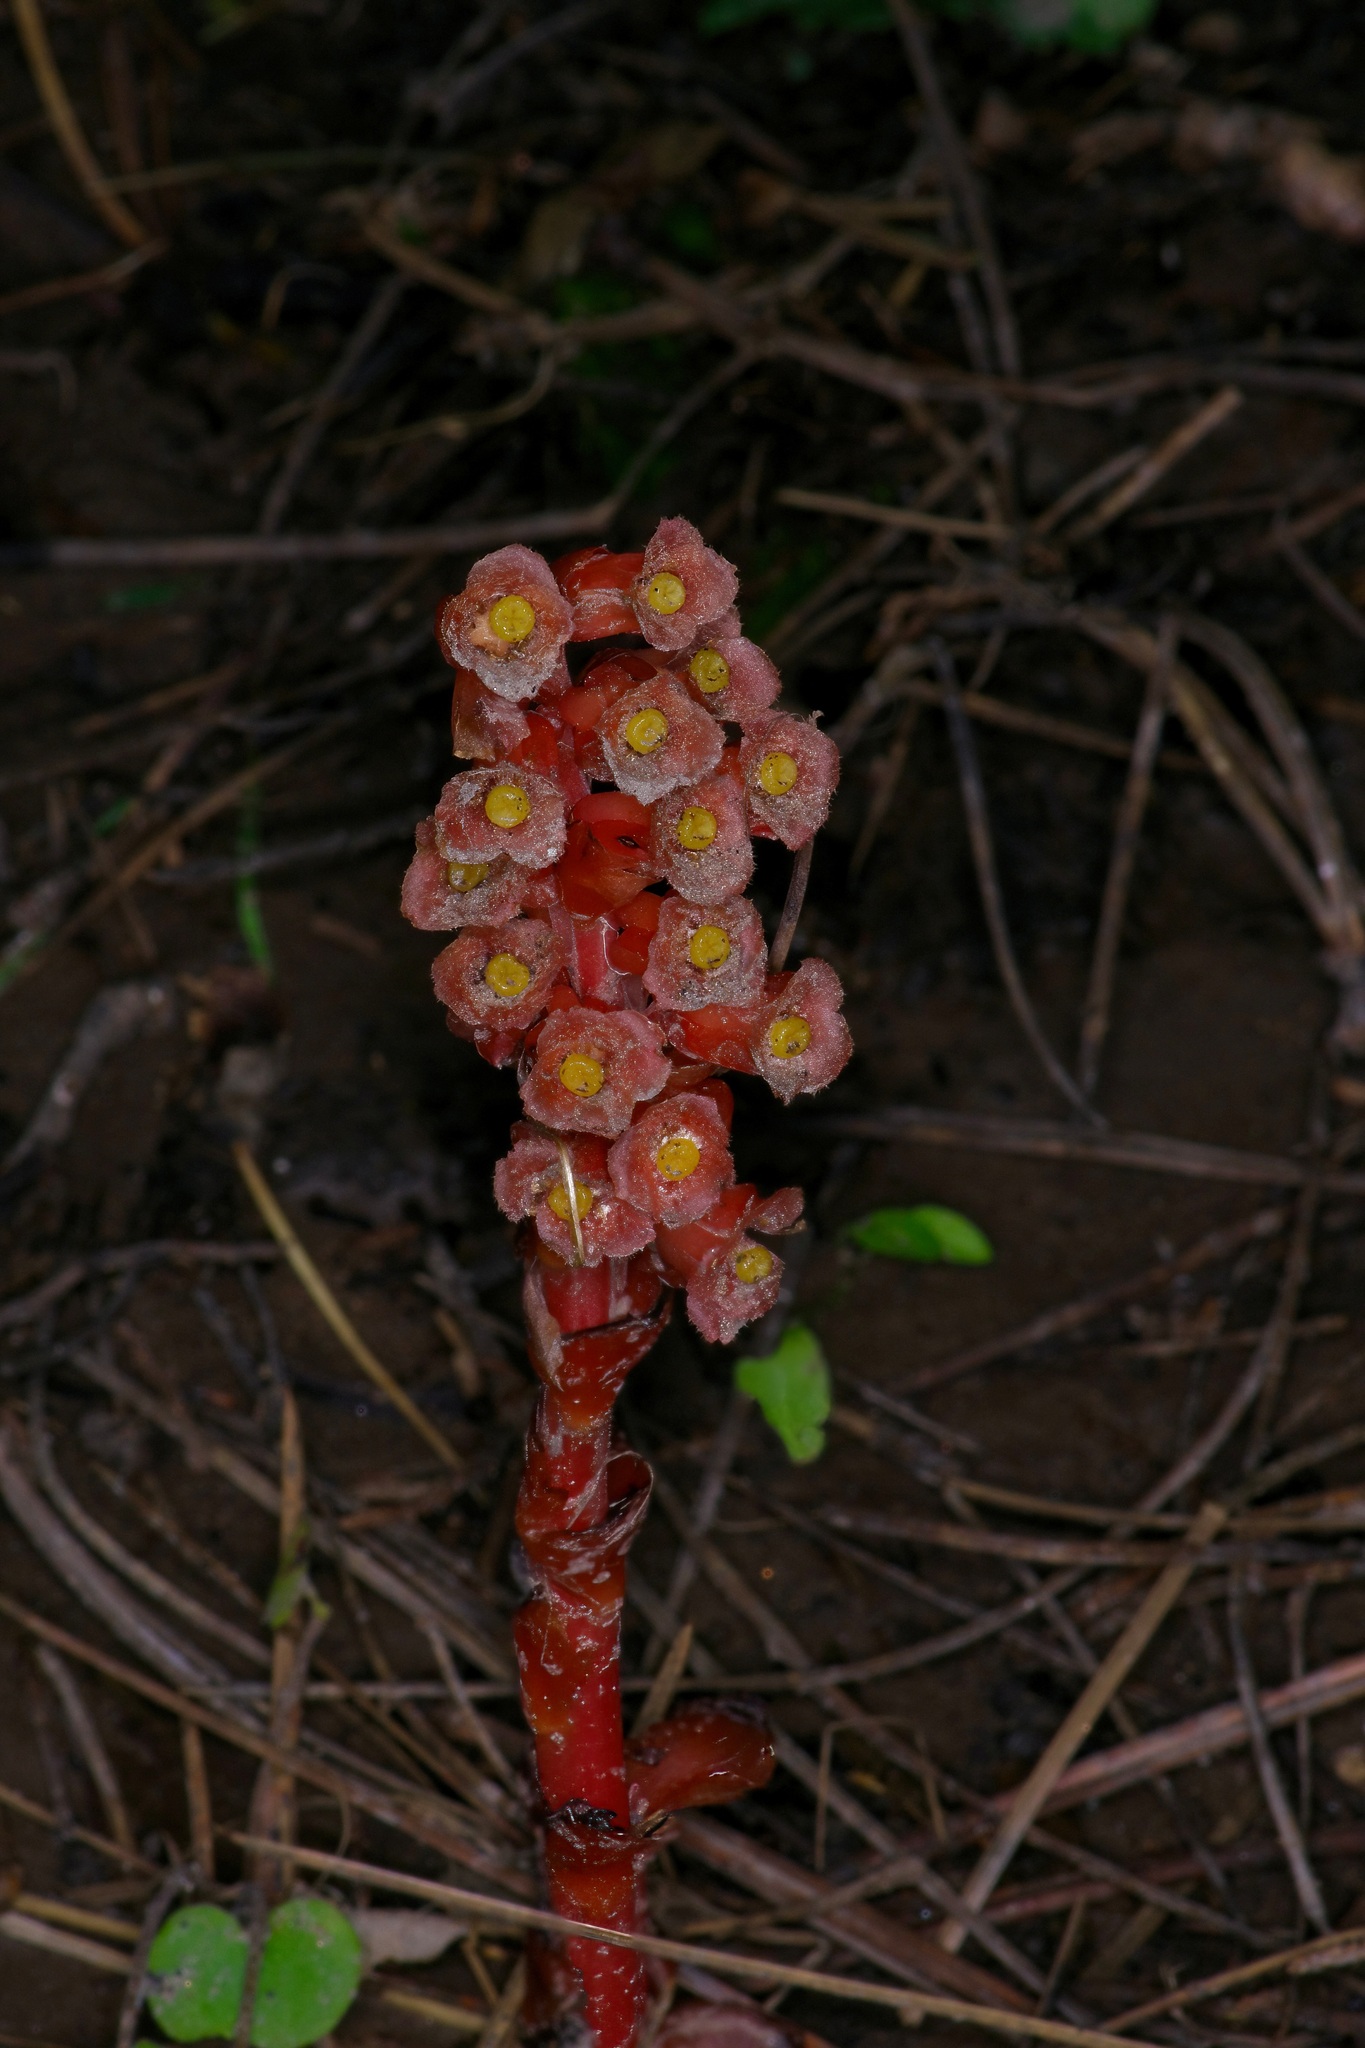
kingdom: Plantae
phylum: Tracheophyta
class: Magnoliopsida
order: Ericales
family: Ericaceae
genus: Hypopitys
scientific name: Hypopitys monotropa
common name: Yellow bird's-nest
